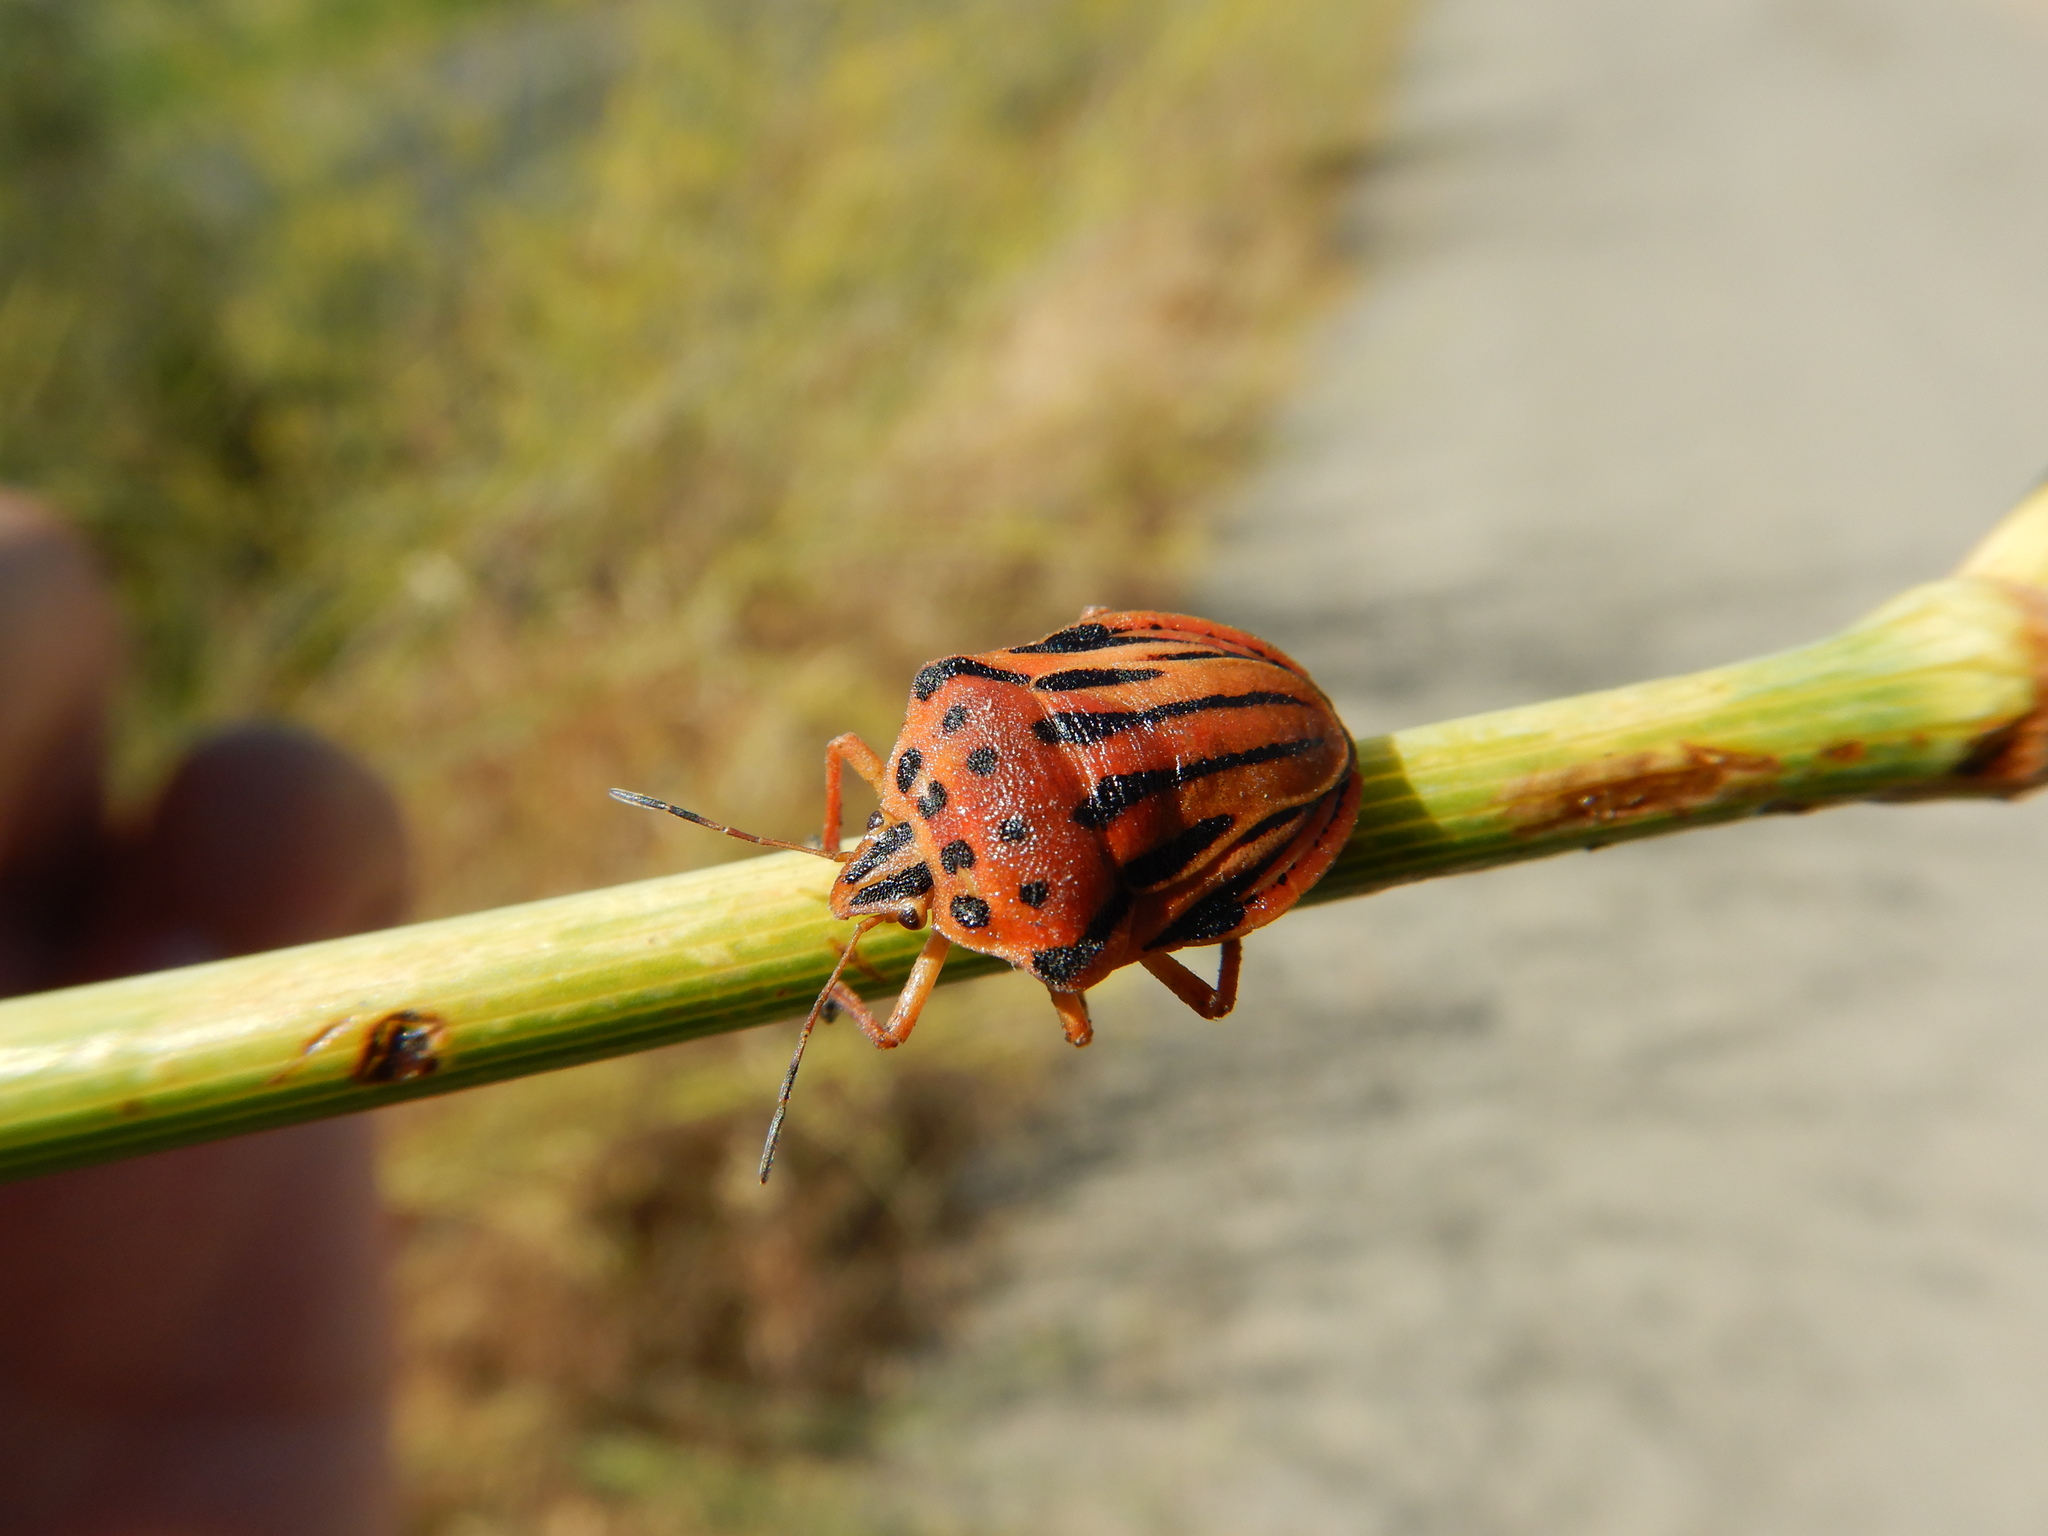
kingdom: Animalia
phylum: Arthropoda
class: Insecta
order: Hemiptera
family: Pentatomidae
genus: Graphosoma
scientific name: Graphosoma semipunctatum
